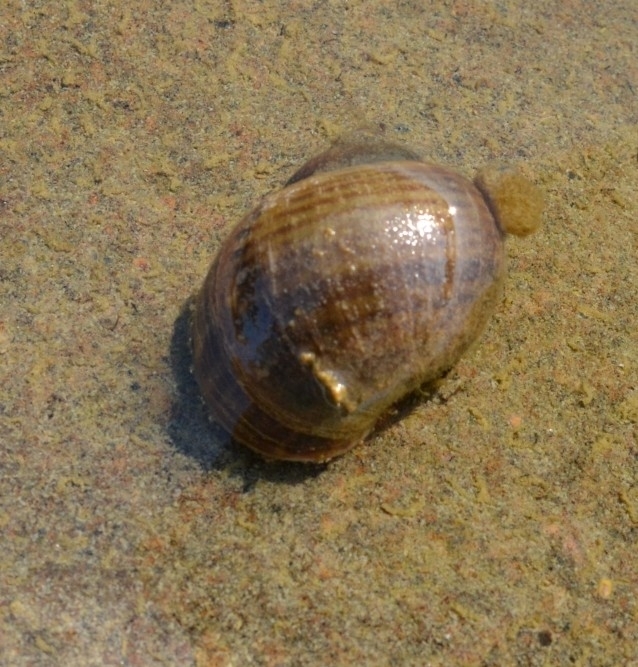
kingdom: Animalia
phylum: Mollusca
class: Gastropoda
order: Architaenioglossa
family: Ampullariidae
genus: Pomacea
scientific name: Pomacea canaliculata
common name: Channeled applesnail
